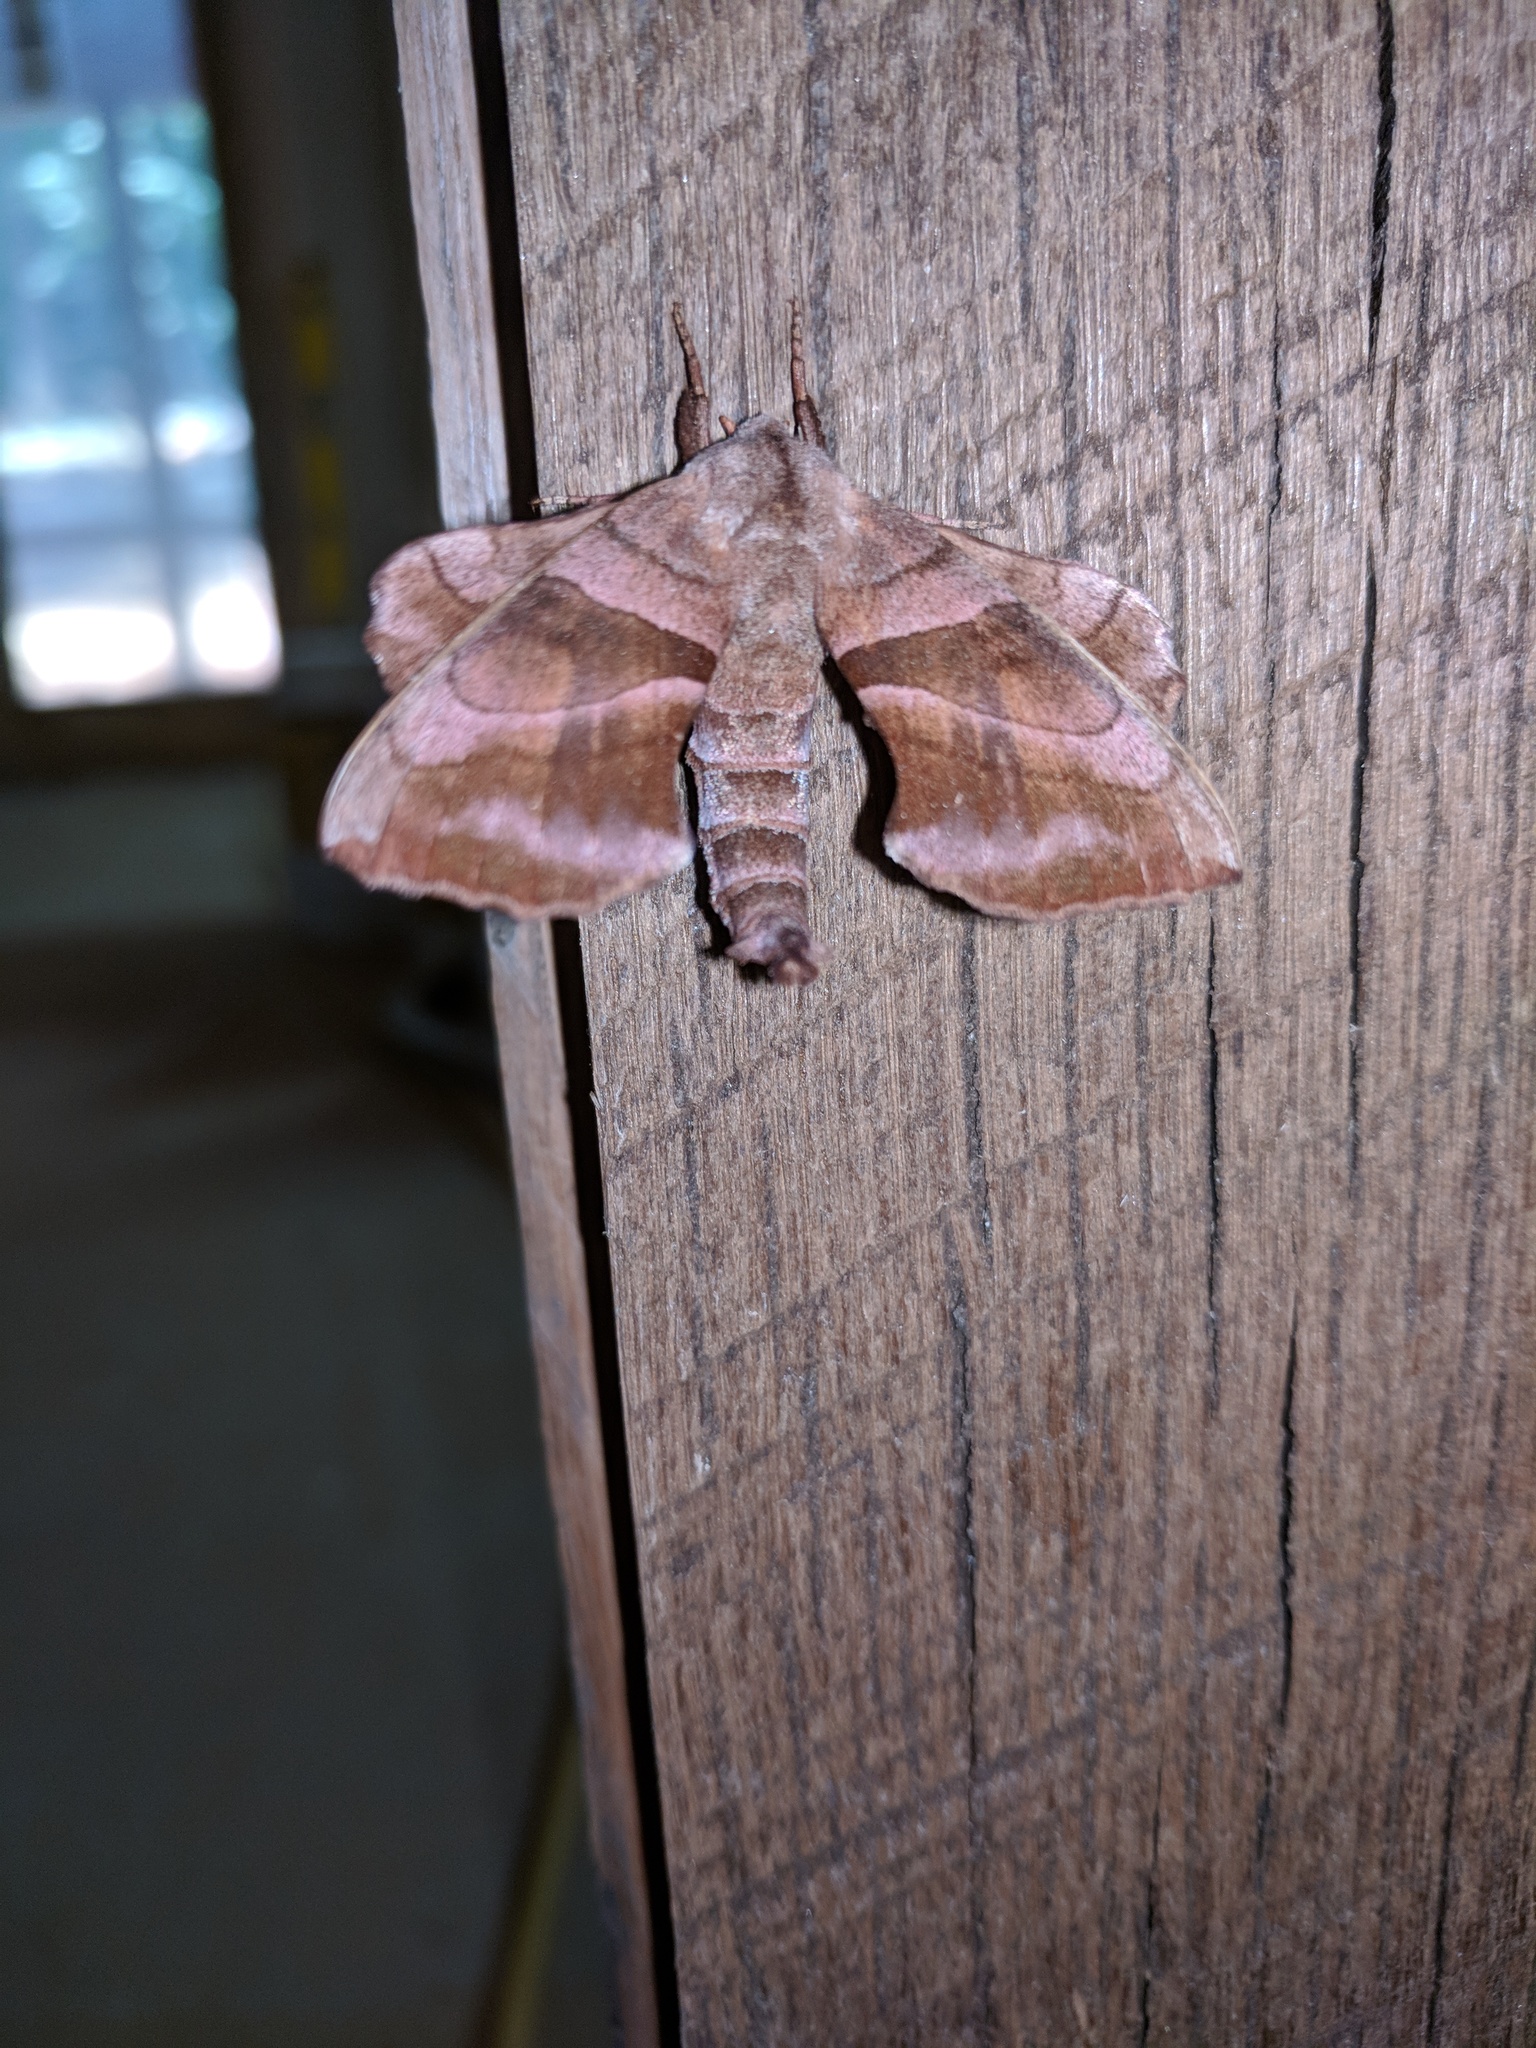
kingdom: Animalia
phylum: Arthropoda
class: Insecta
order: Lepidoptera
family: Sphingidae
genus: Amorpha
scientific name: Amorpha juglandis
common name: Walnut sphinx
